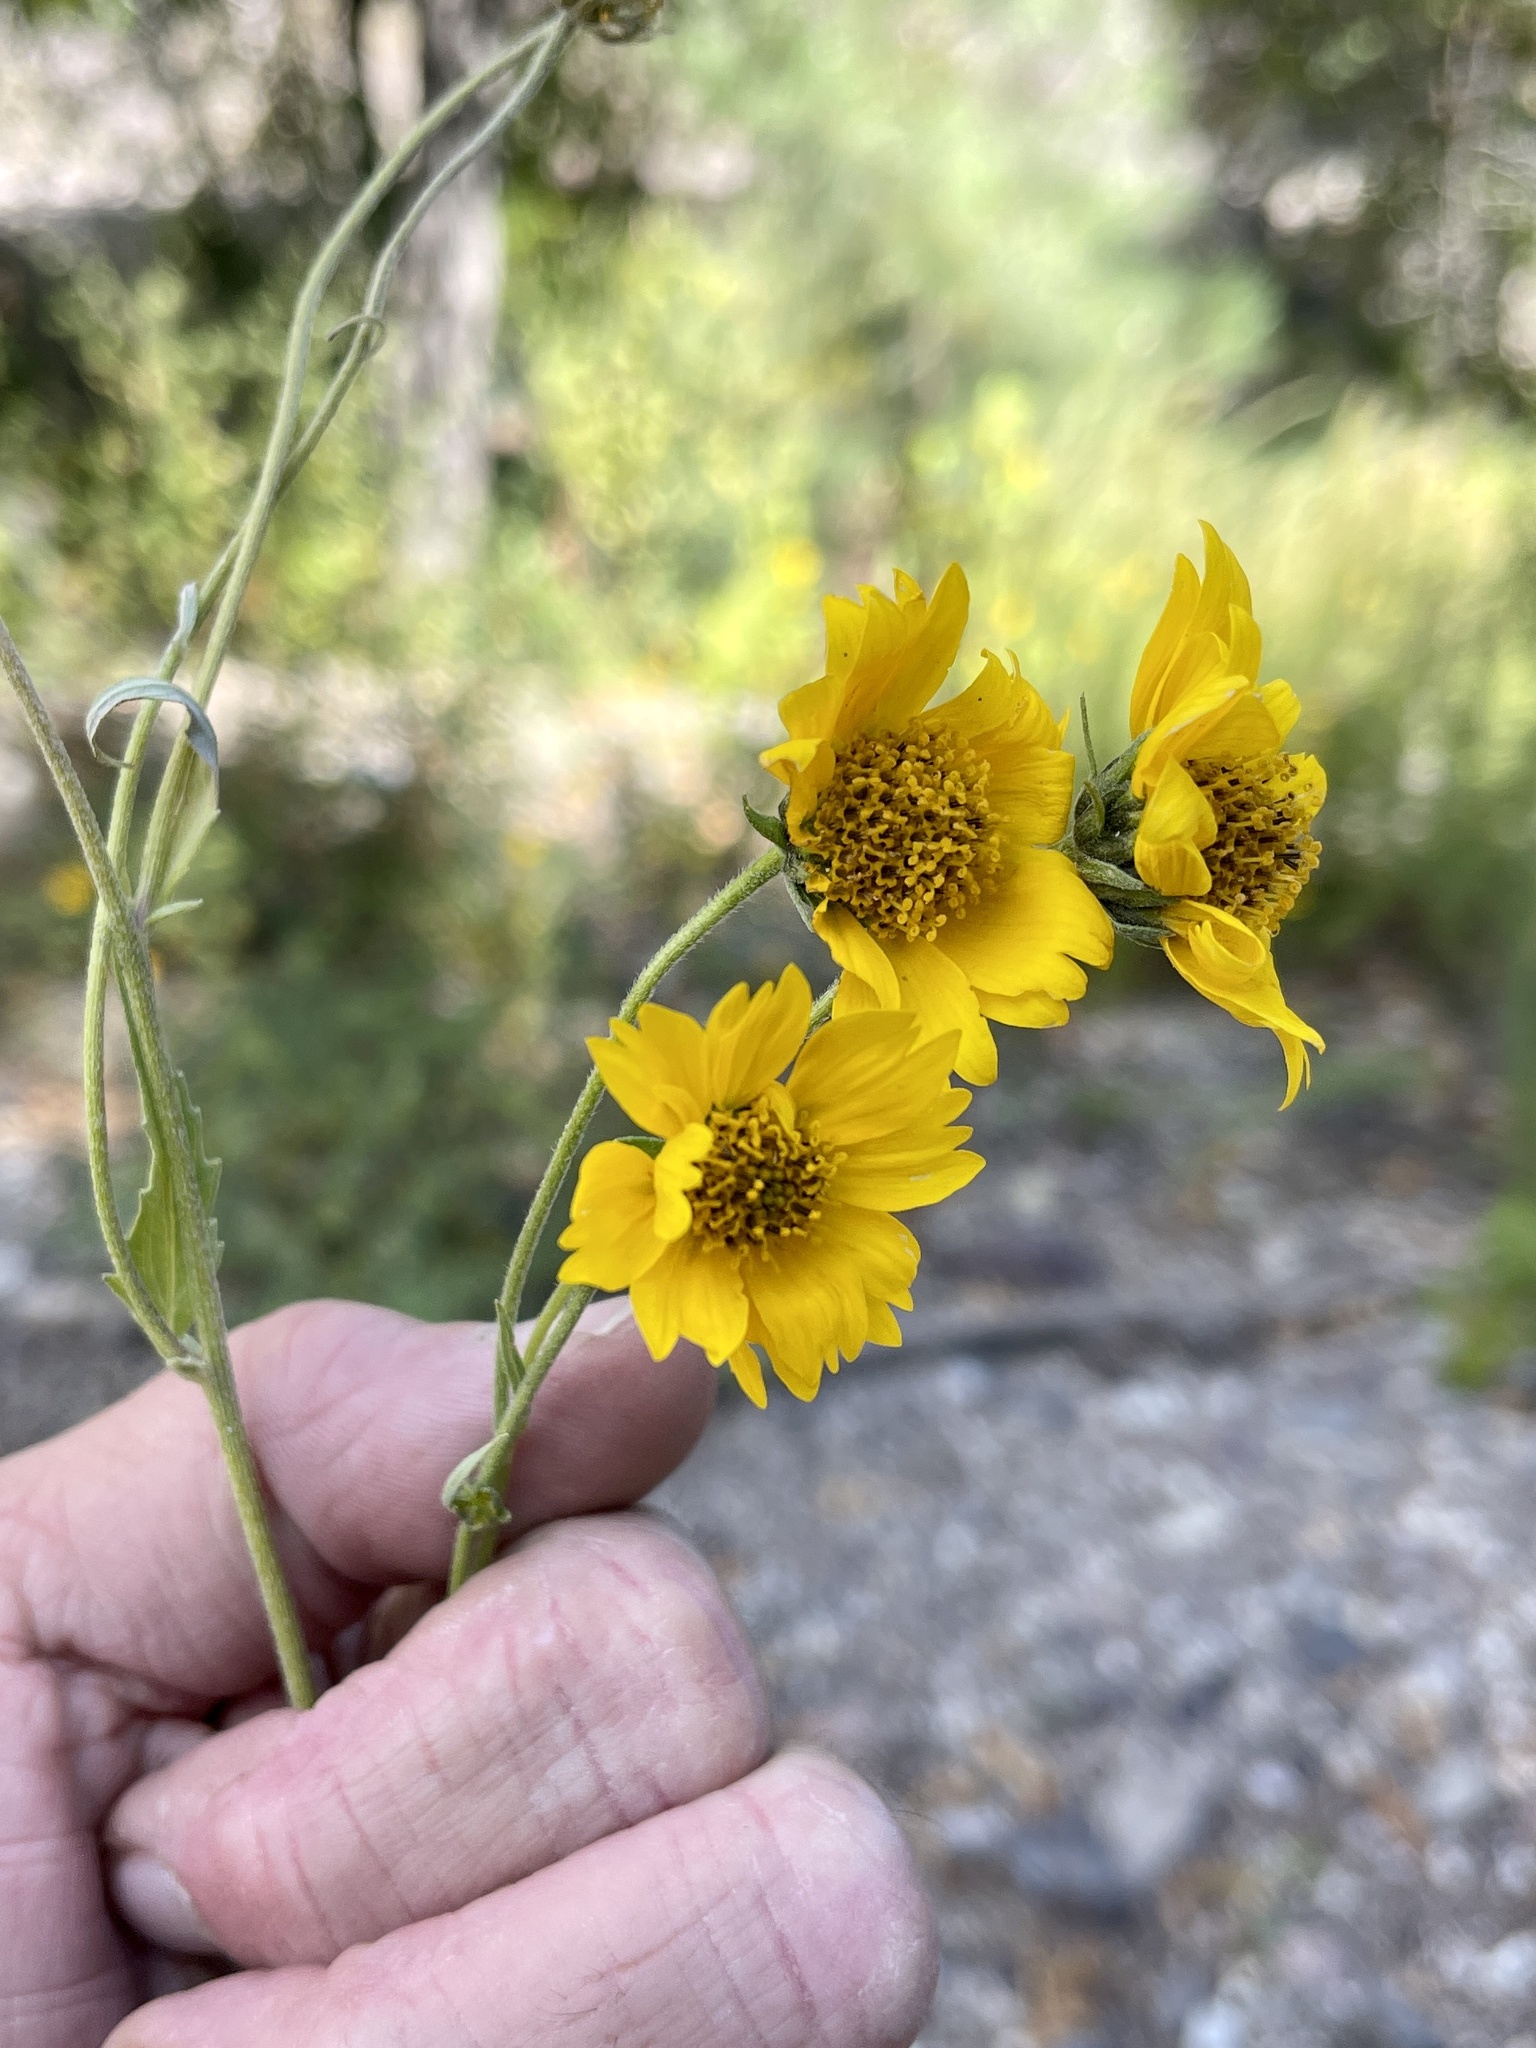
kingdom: Plantae
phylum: Tracheophyta
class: Magnoliopsida
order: Asterales
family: Asteraceae
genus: Verbesina
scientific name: Verbesina encelioides
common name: Golden crownbeard
